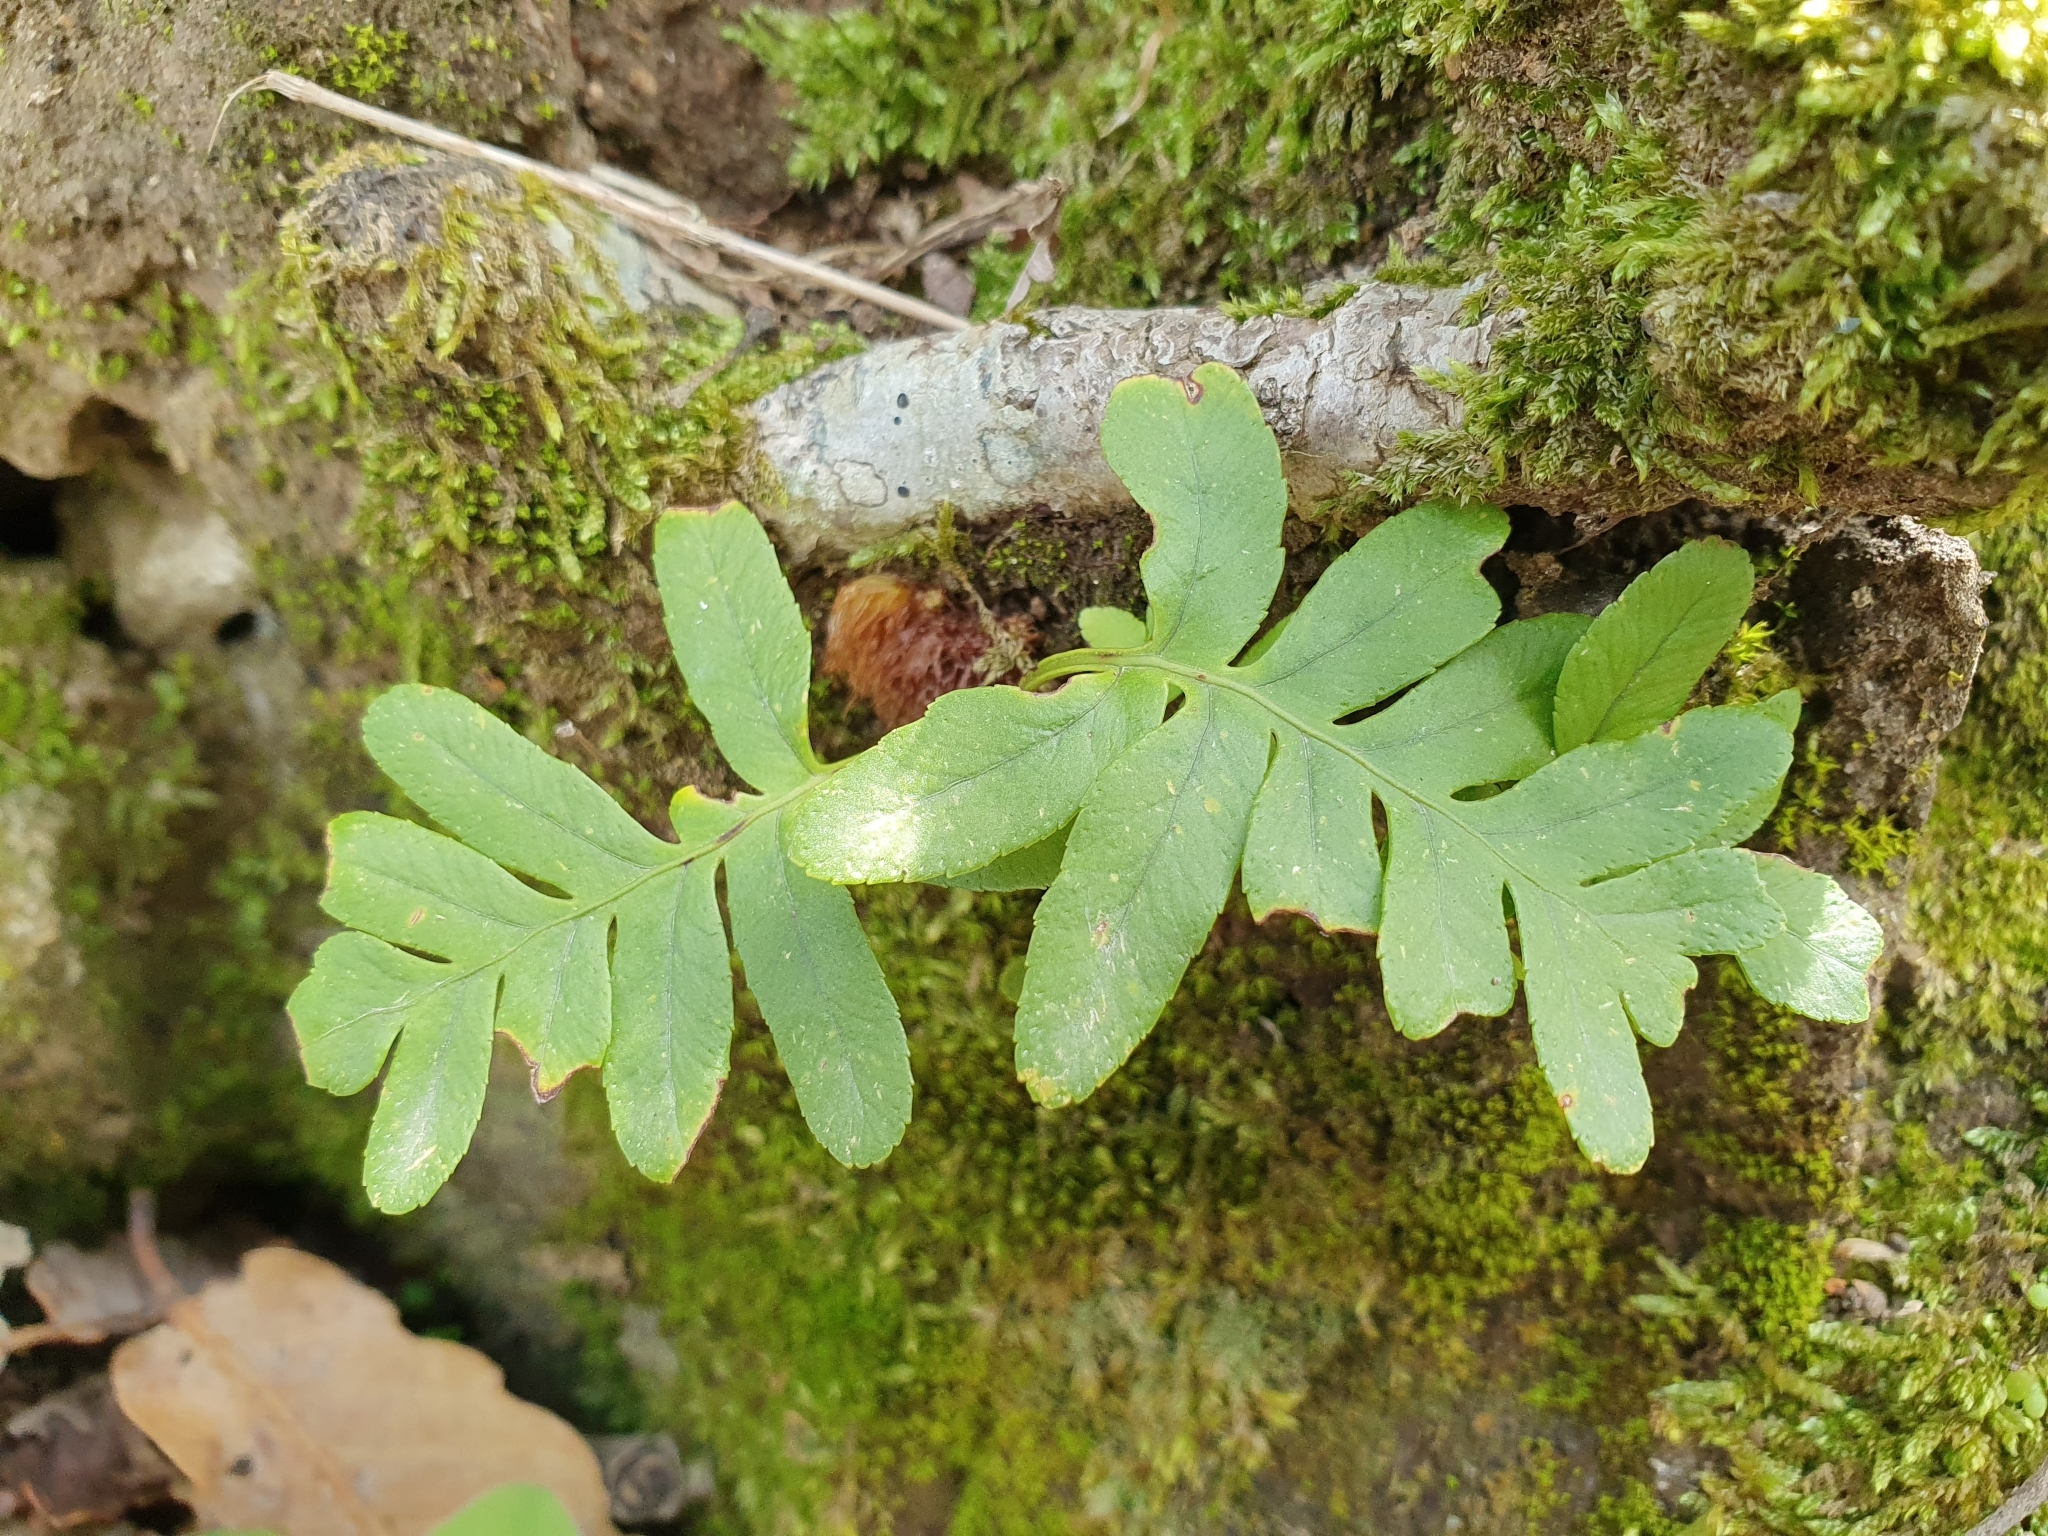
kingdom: Plantae
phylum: Tracheophyta
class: Polypodiopsida
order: Polypodiales
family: Polypodiaceae
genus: Polypodium
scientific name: Polypodium cambricum
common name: Southern polypody
